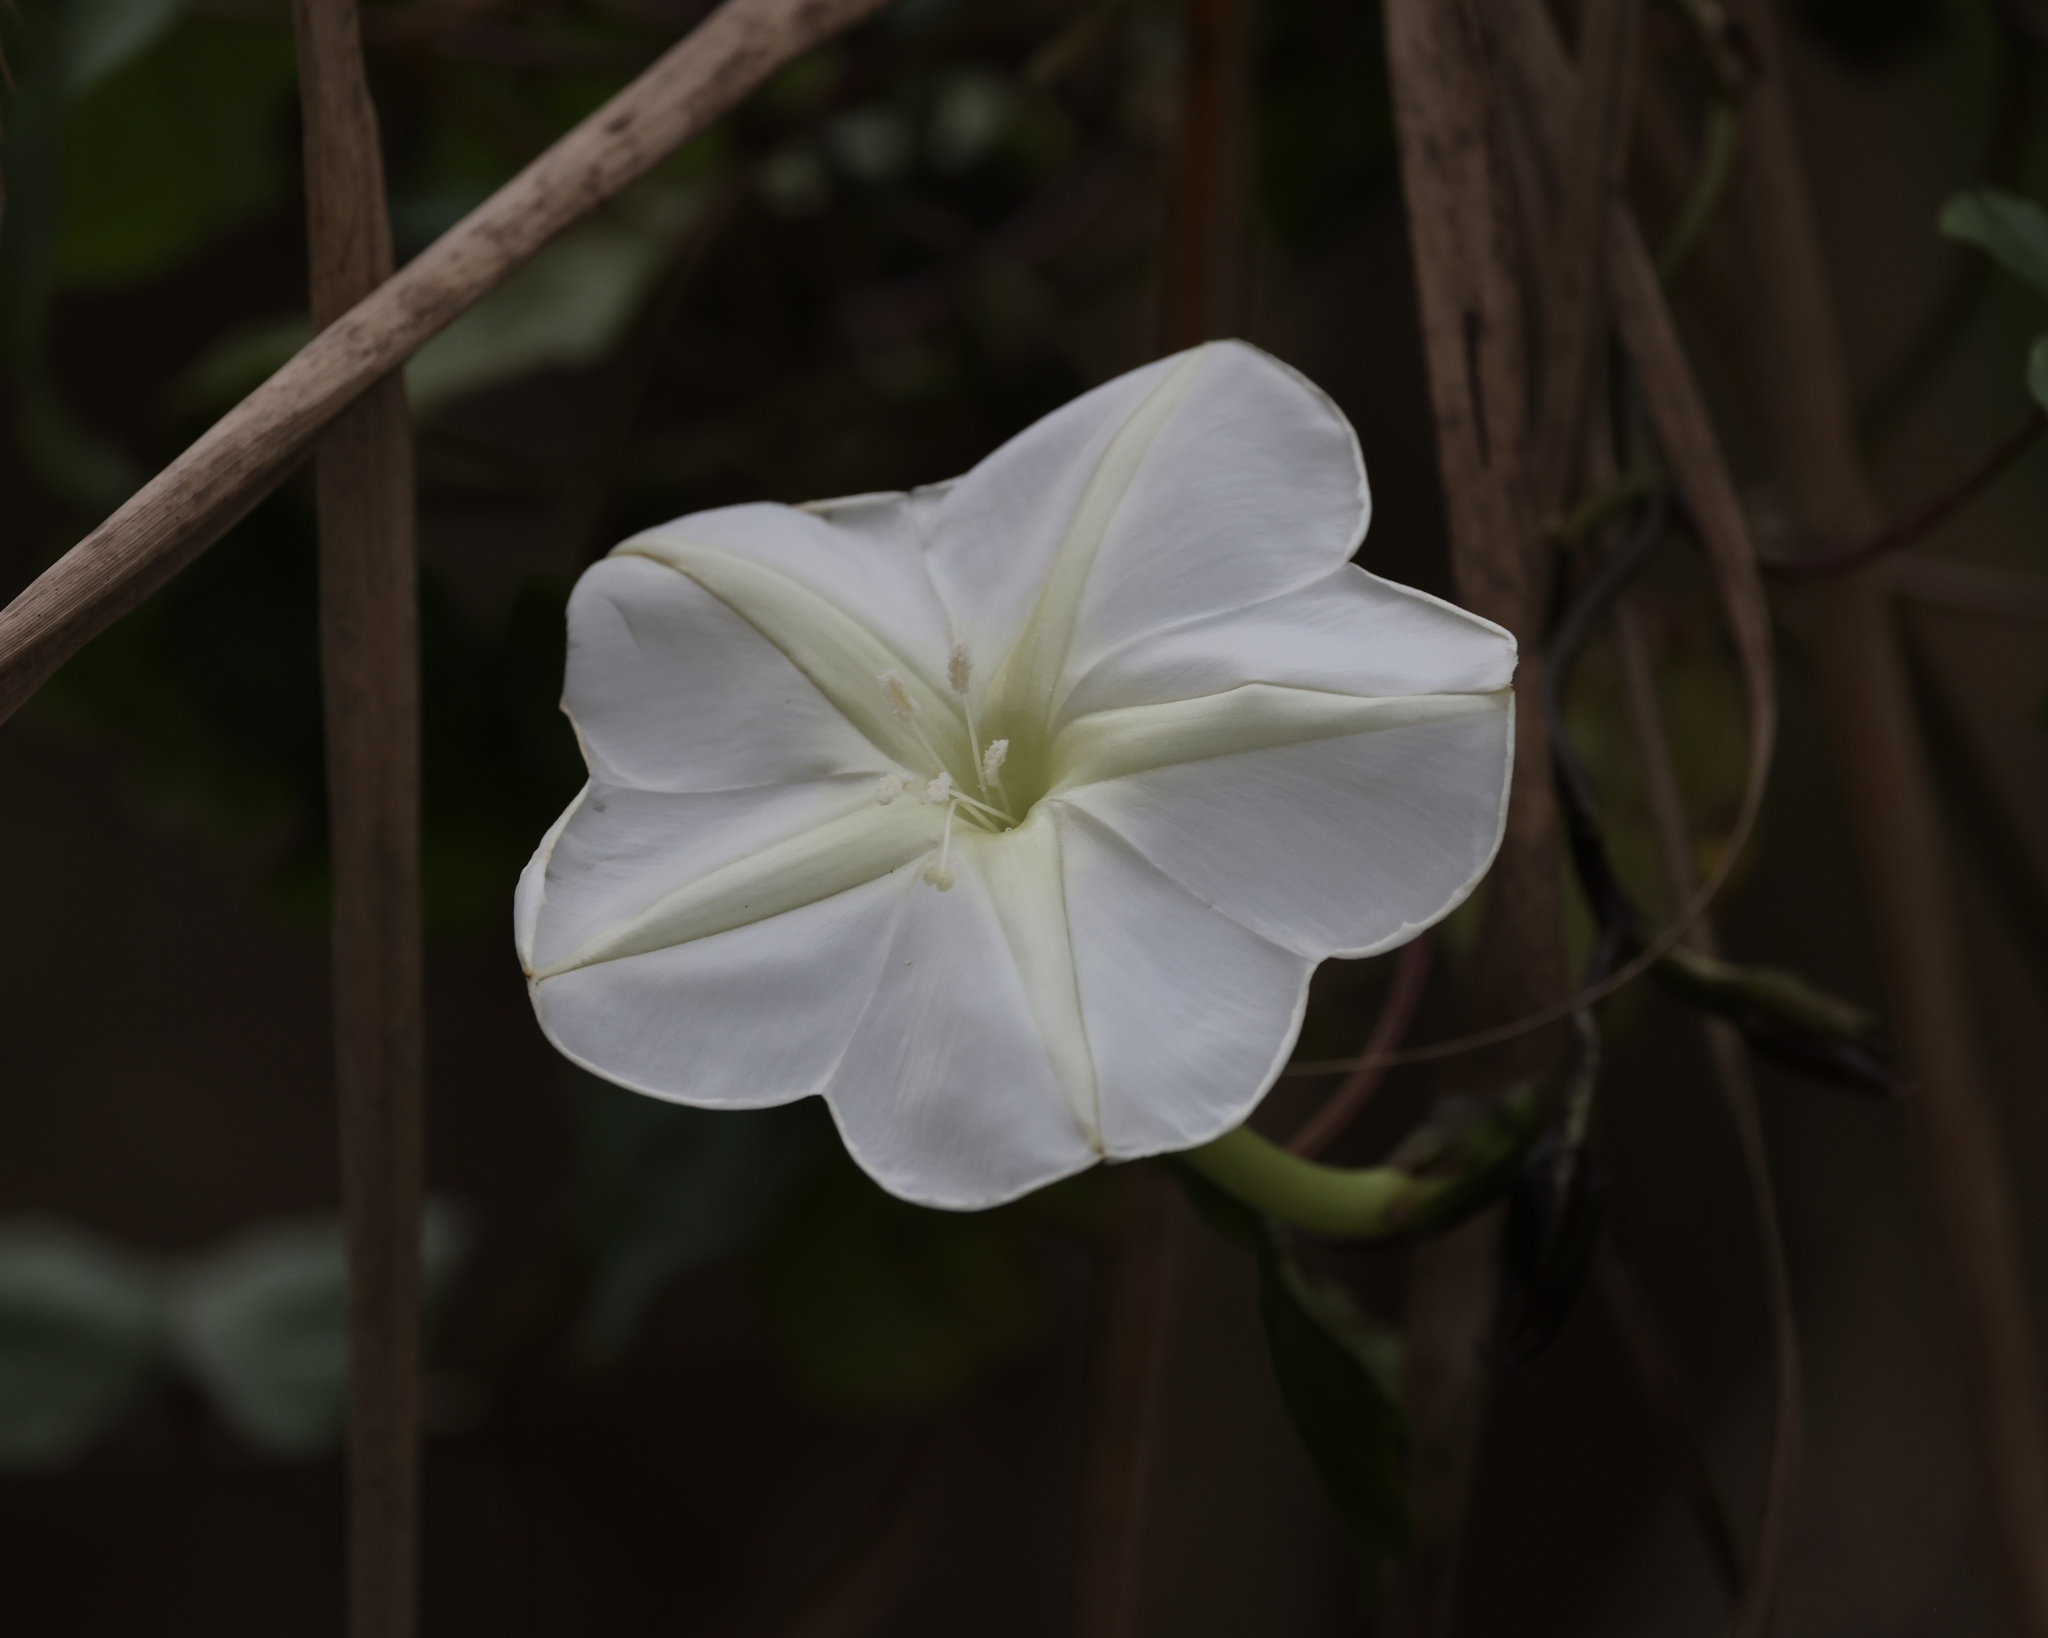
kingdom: Plantae
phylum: Tracheophyta
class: Magnoliopsida
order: Solanales
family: Convolvulaceae
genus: Ipomoea
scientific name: Ipomoea alba
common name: Moonflower
